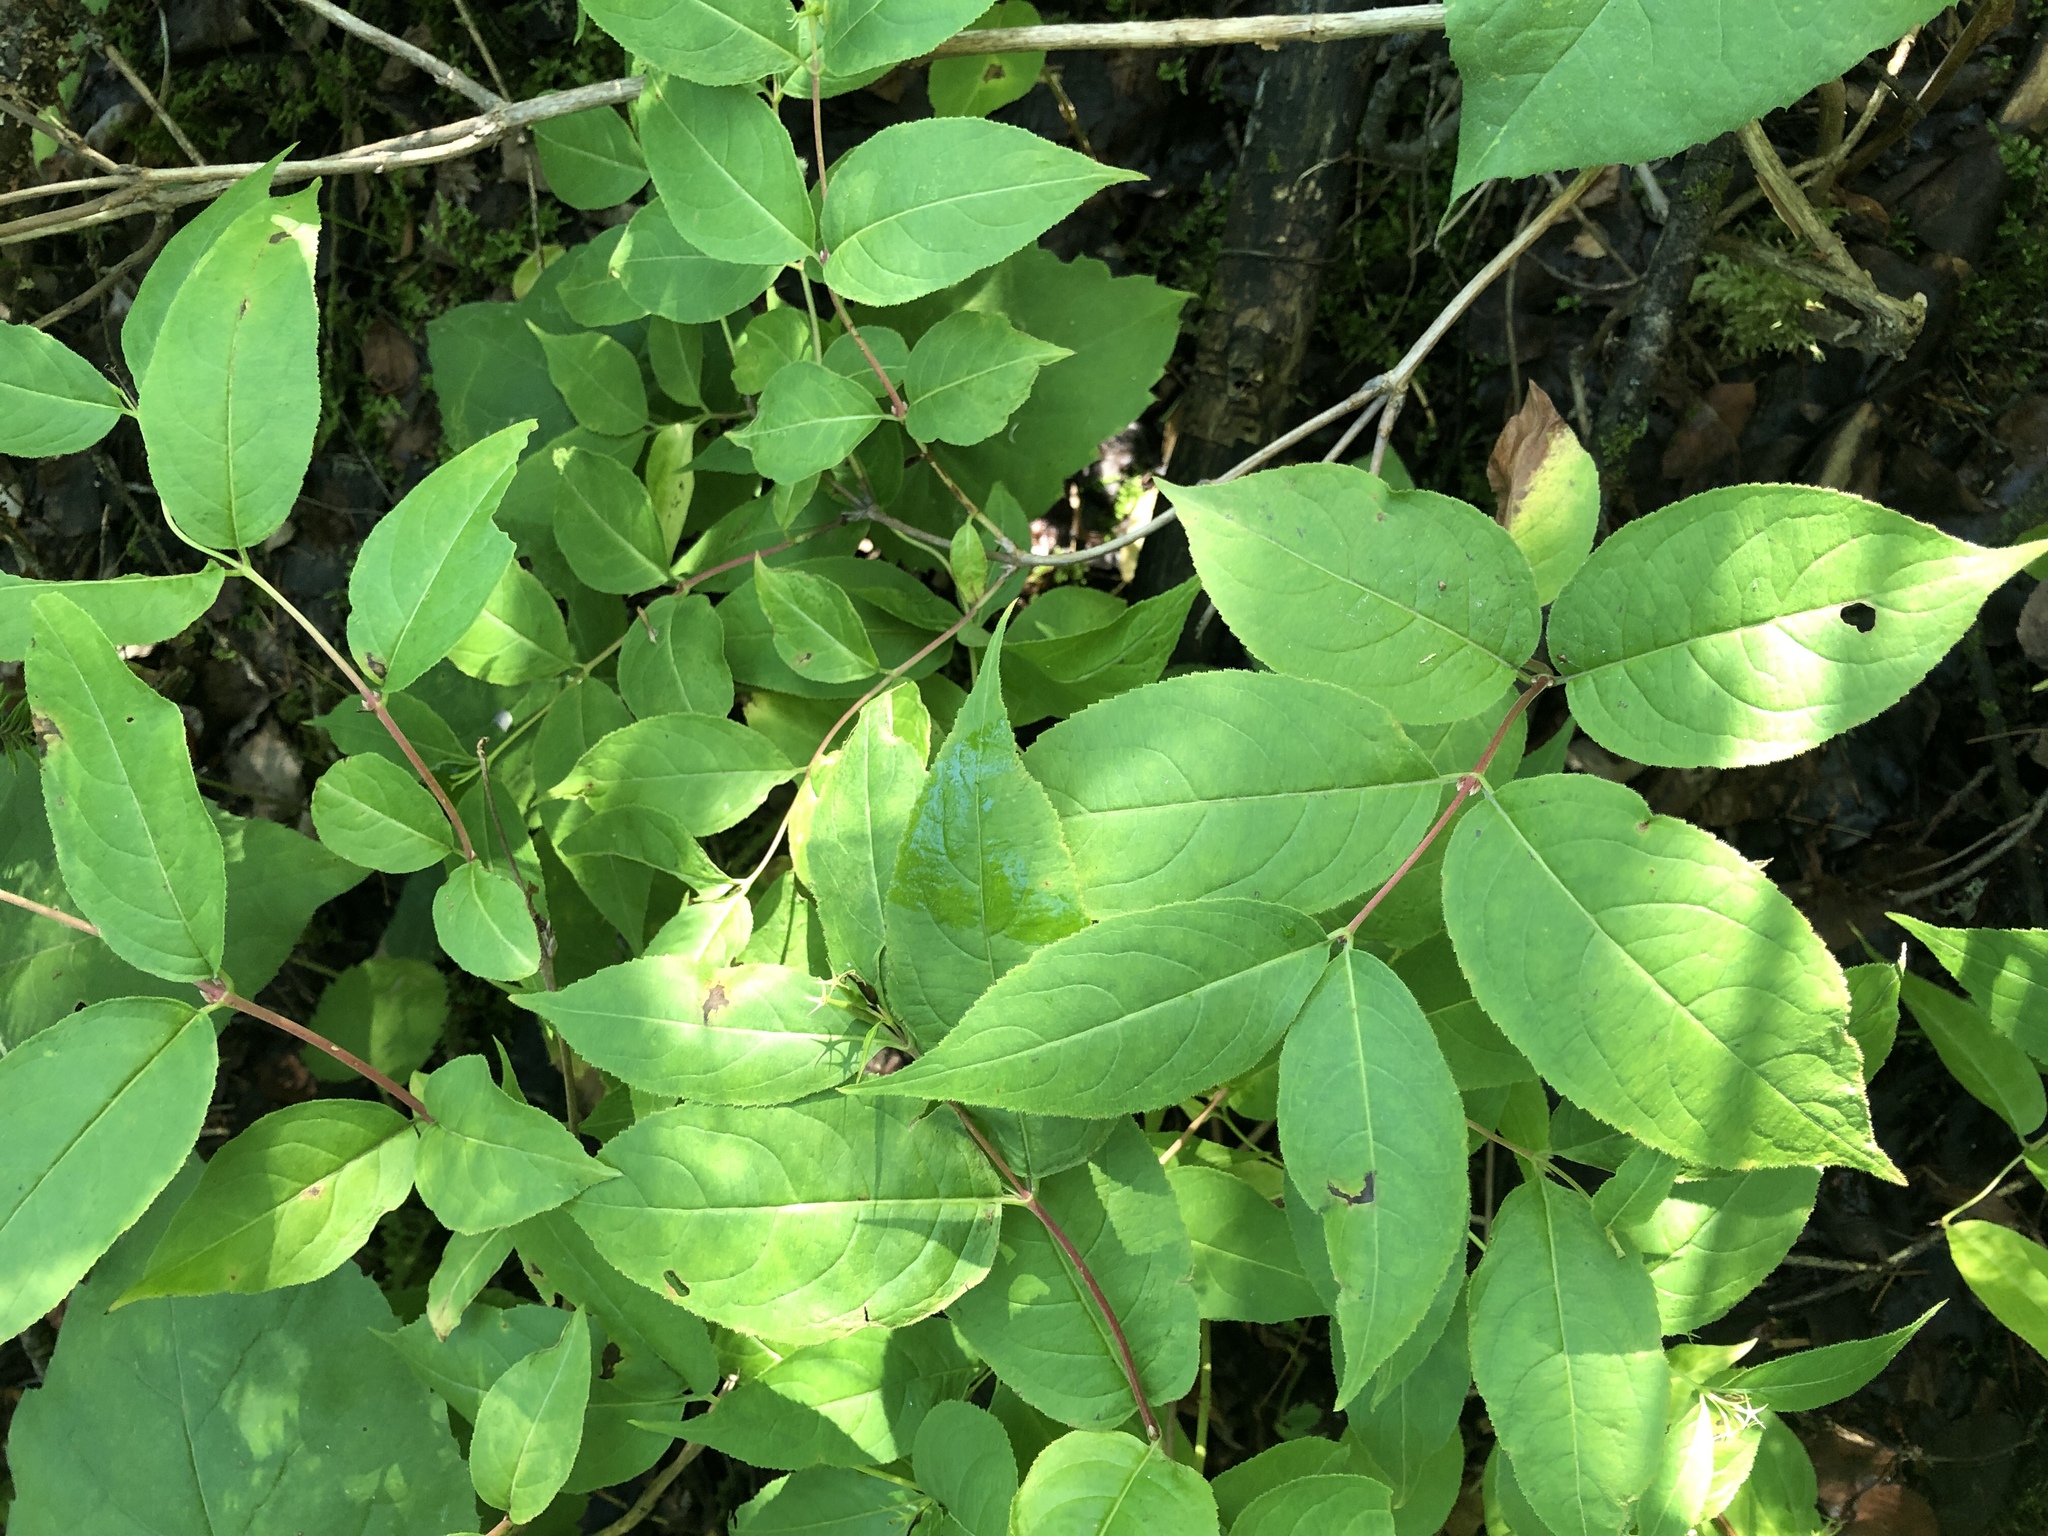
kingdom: Plantae
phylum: Tracheophyta
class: Magnoliopsida
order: Dipsacales
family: Caprifoliaceae
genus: Diervilla
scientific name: Diervilla lonicera
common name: Bush-honeysuckle
